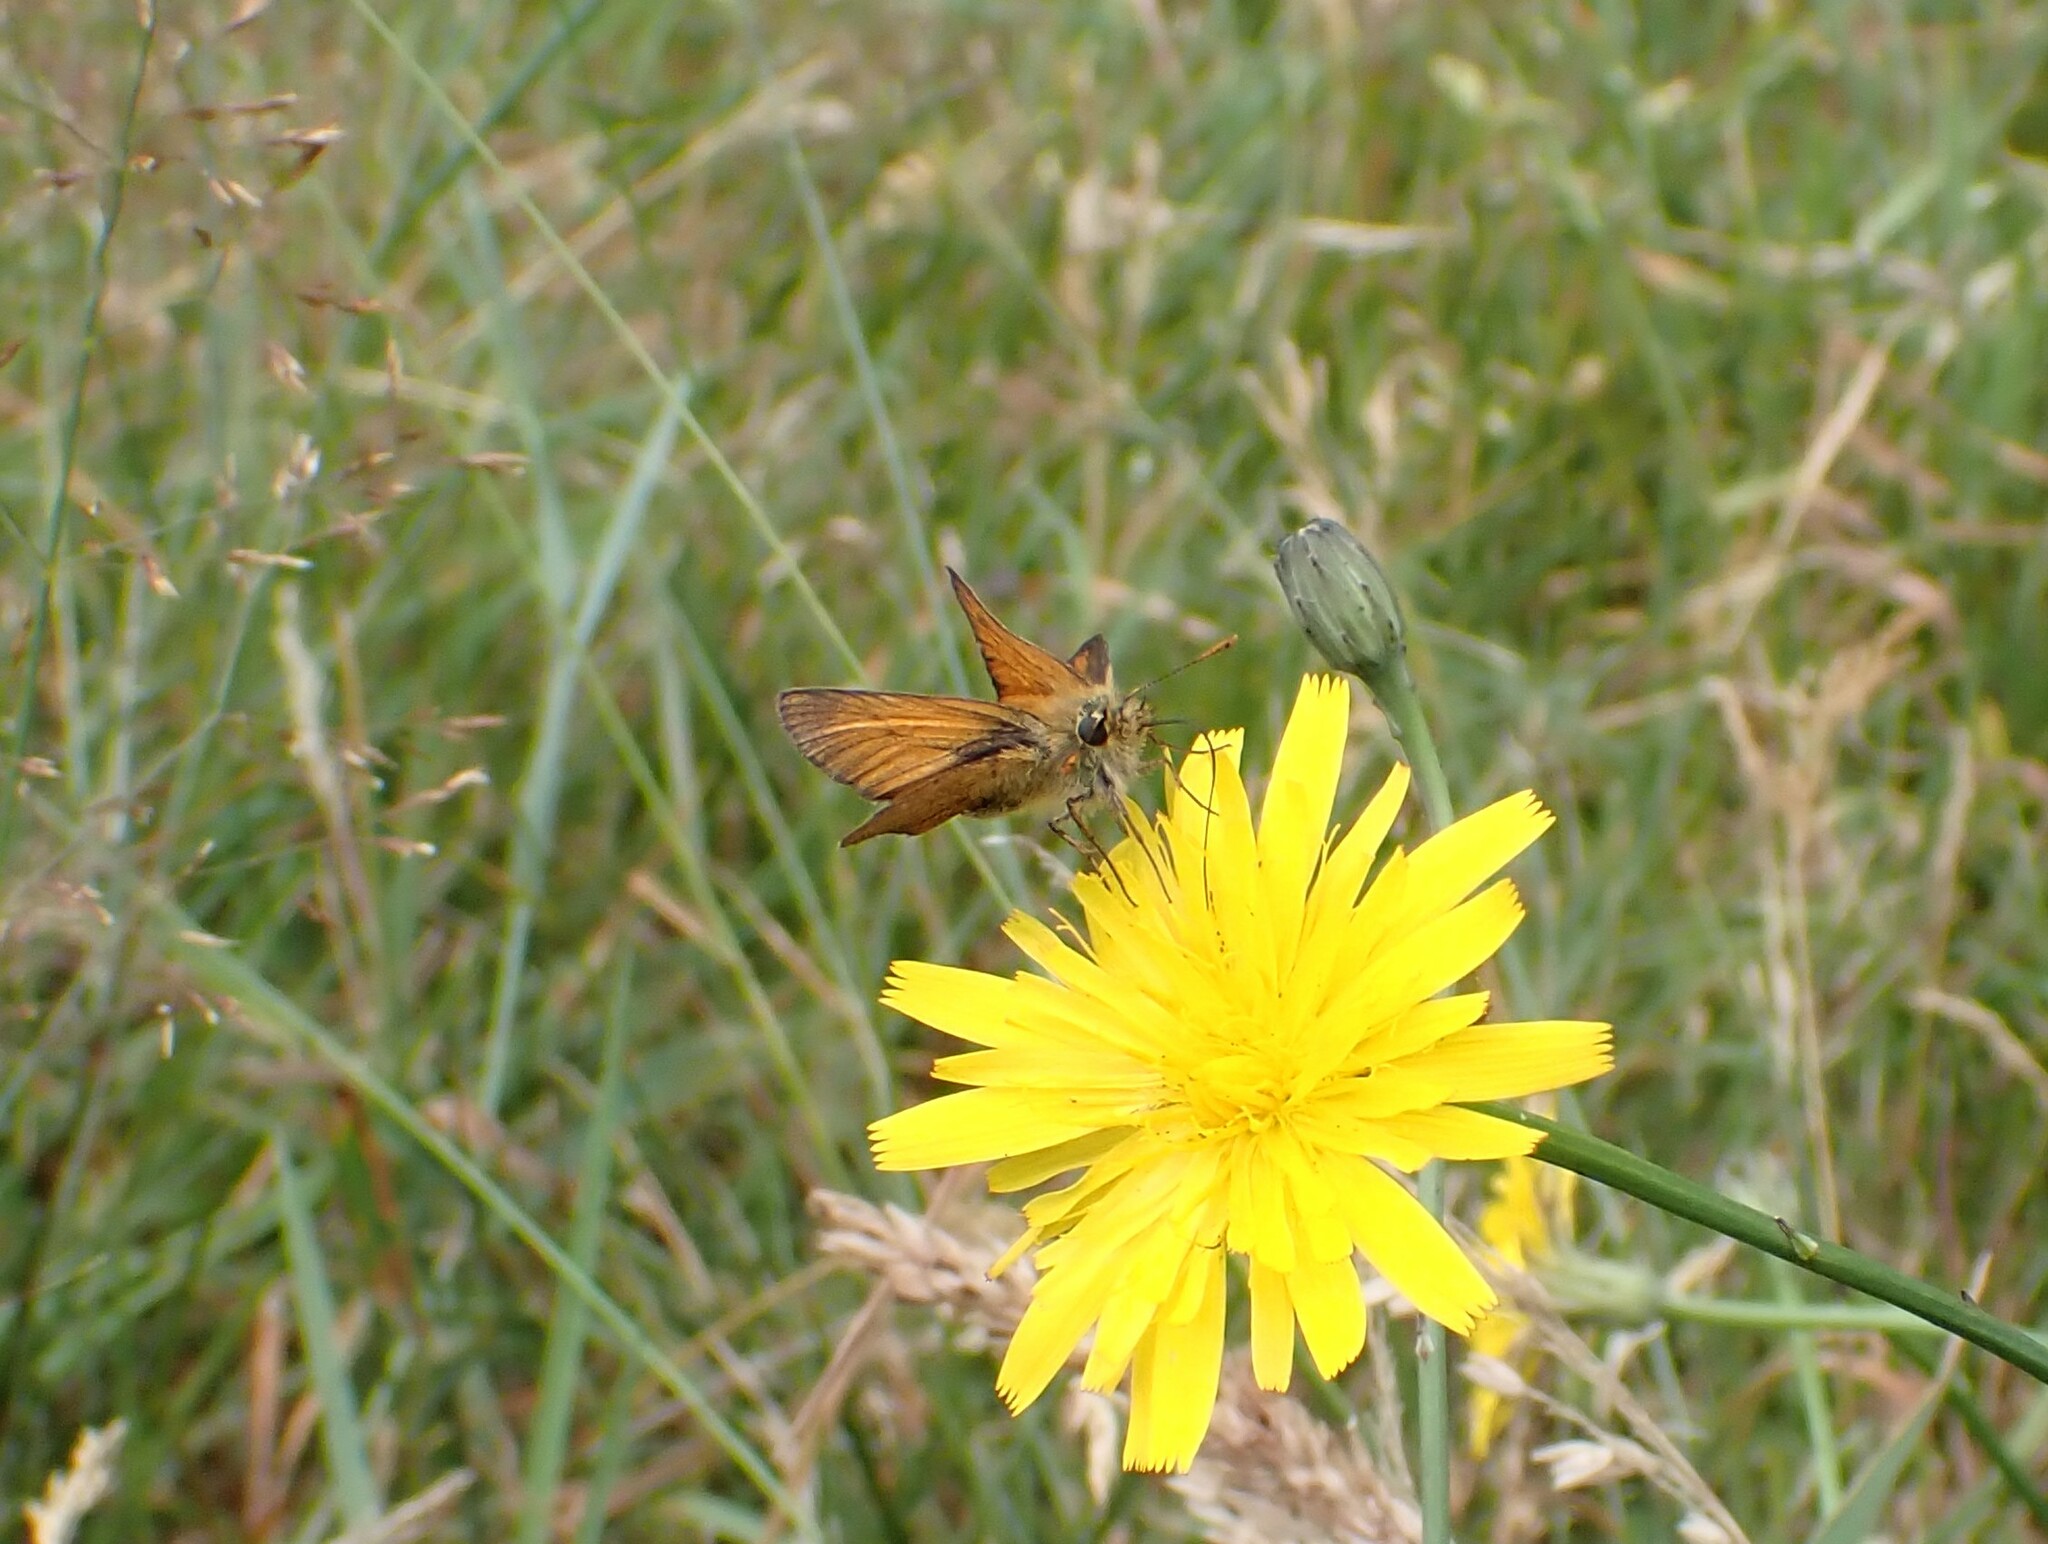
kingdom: Animalia
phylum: Arthropoda
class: Insecta
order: Lepidoptera
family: Hesperiidae
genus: Thymelicus
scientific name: Thymelicus sylvestris
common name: Small skipper
